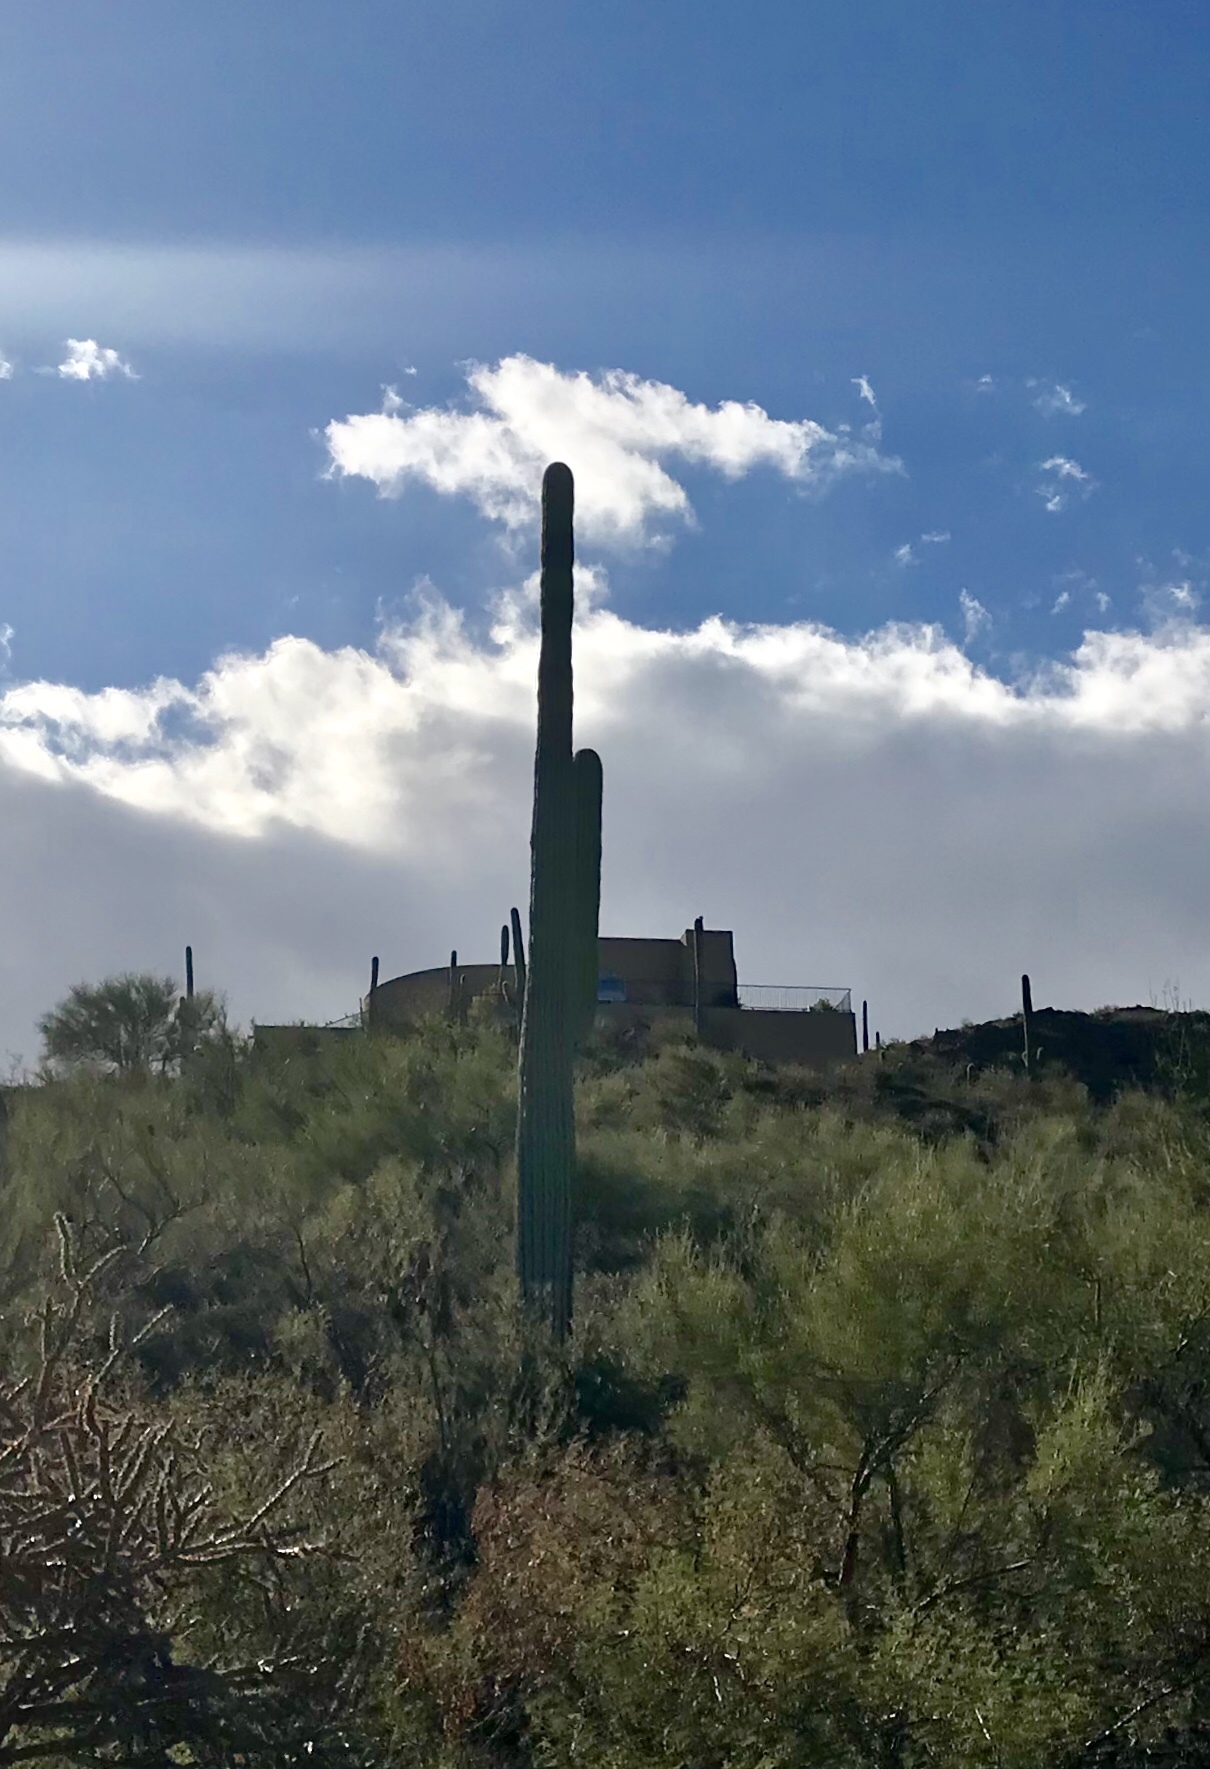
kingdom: Plantae
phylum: Tracheophyta
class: Magnoliopsida
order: Caryophyllales
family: Cactaceae
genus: Carnegiea
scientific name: Carnegiea gigantea
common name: Saguaro
